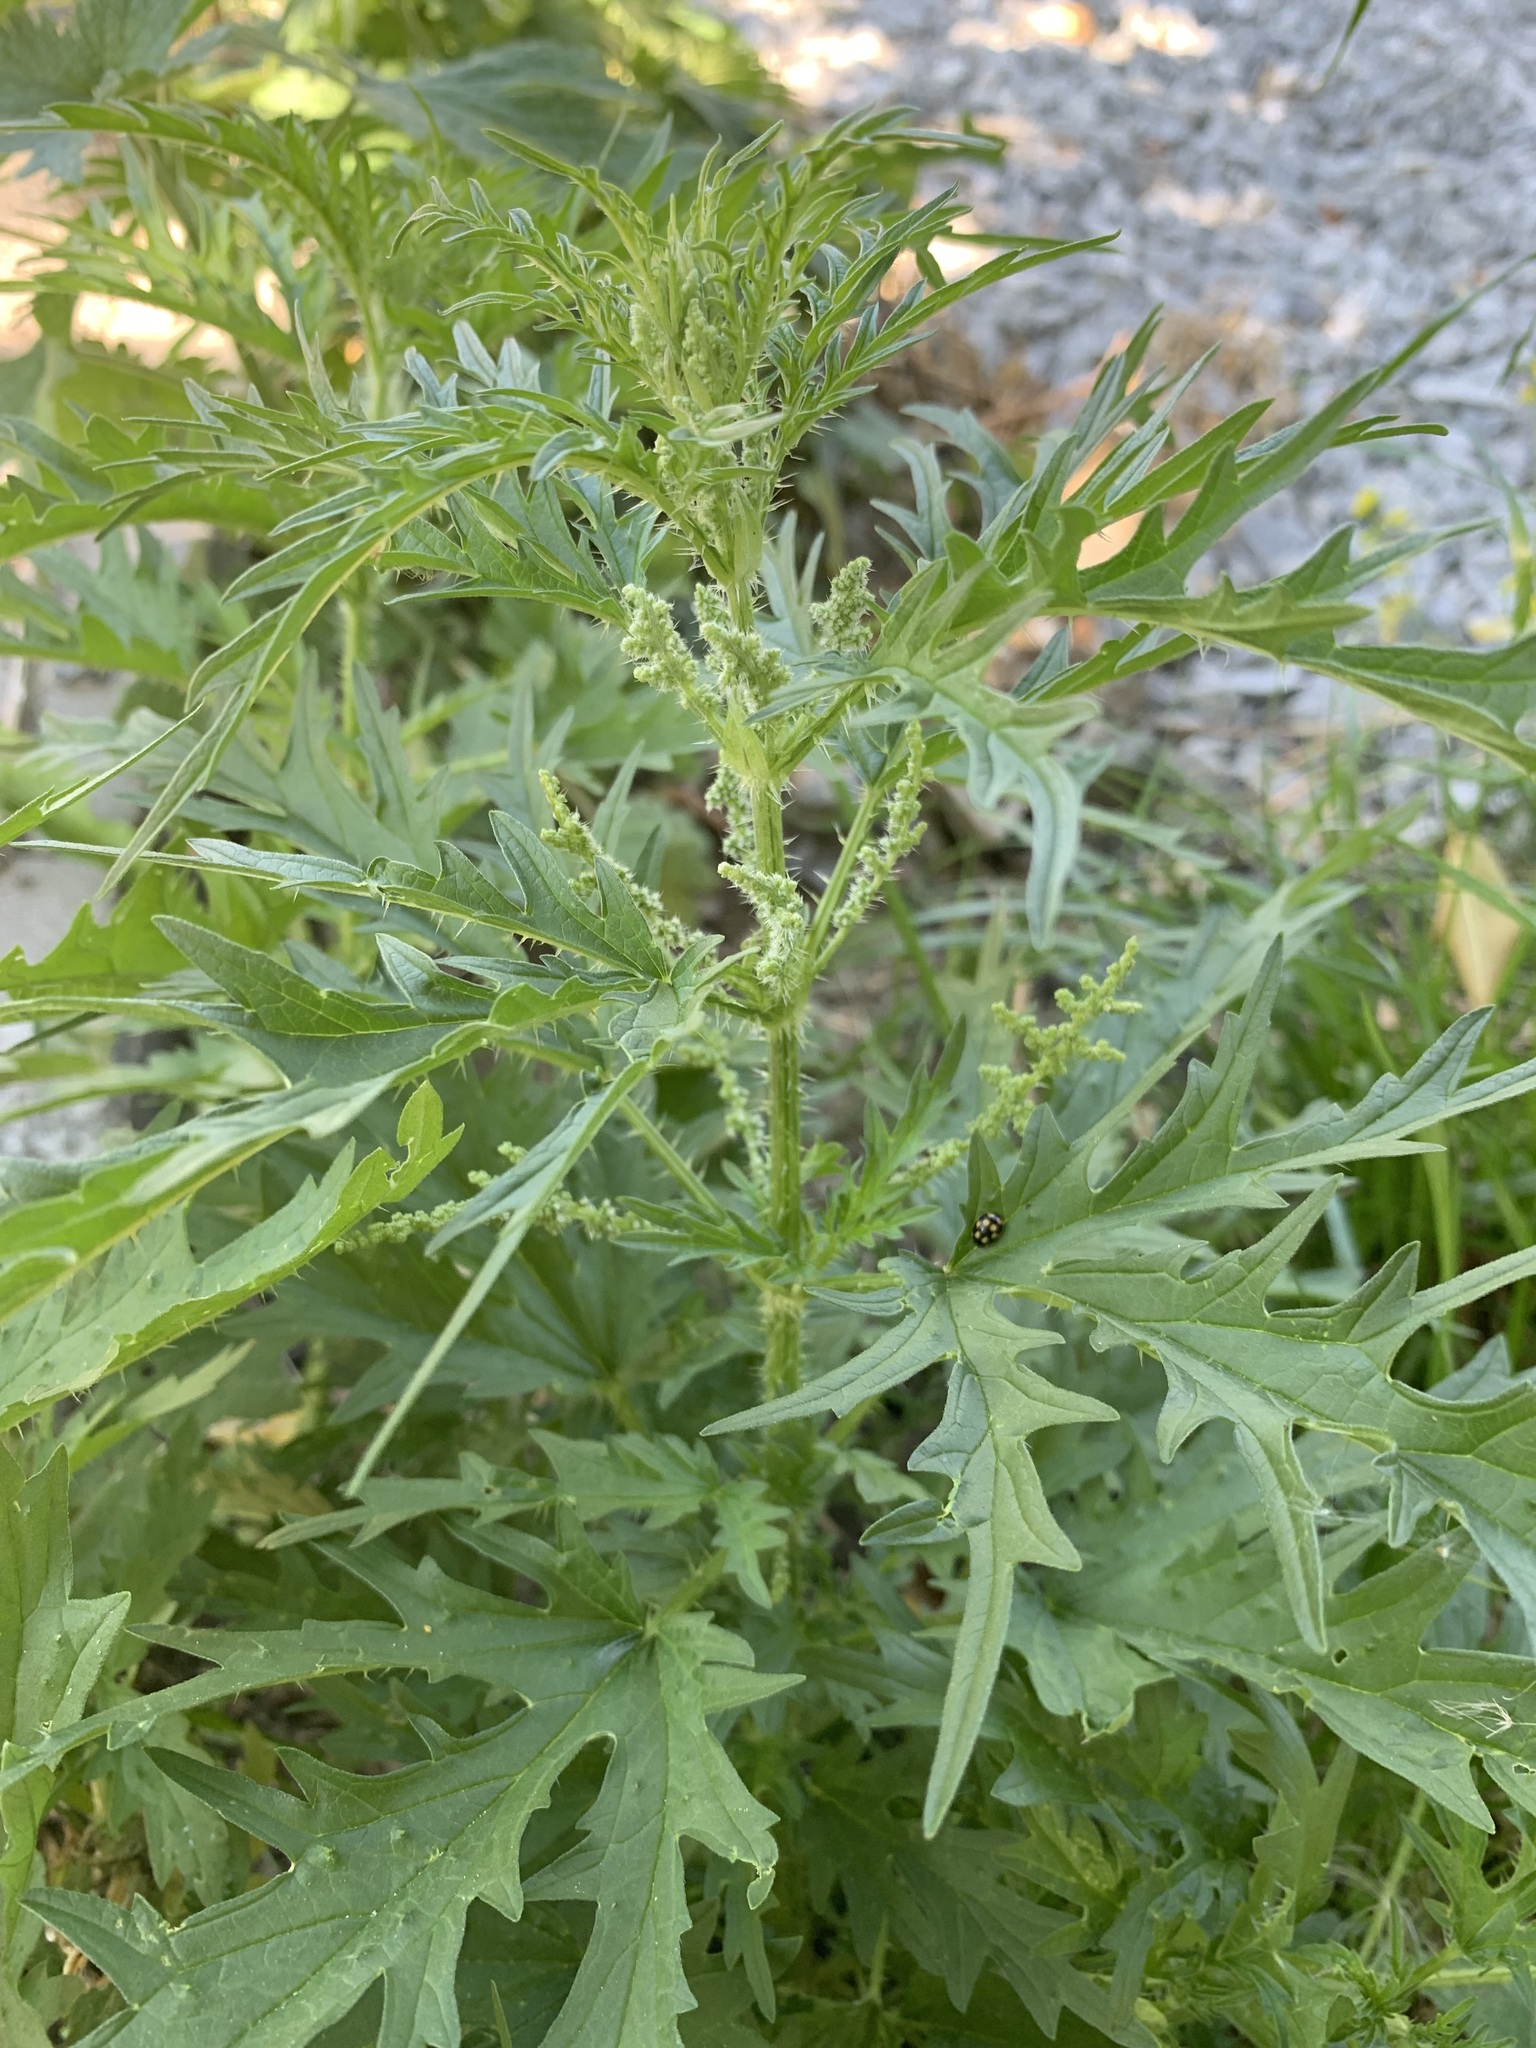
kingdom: Plantae
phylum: Tracheophyta
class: Magnoliopsida
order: Rosales
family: Urticaceae
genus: Urtica
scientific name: Urtica cannabina
